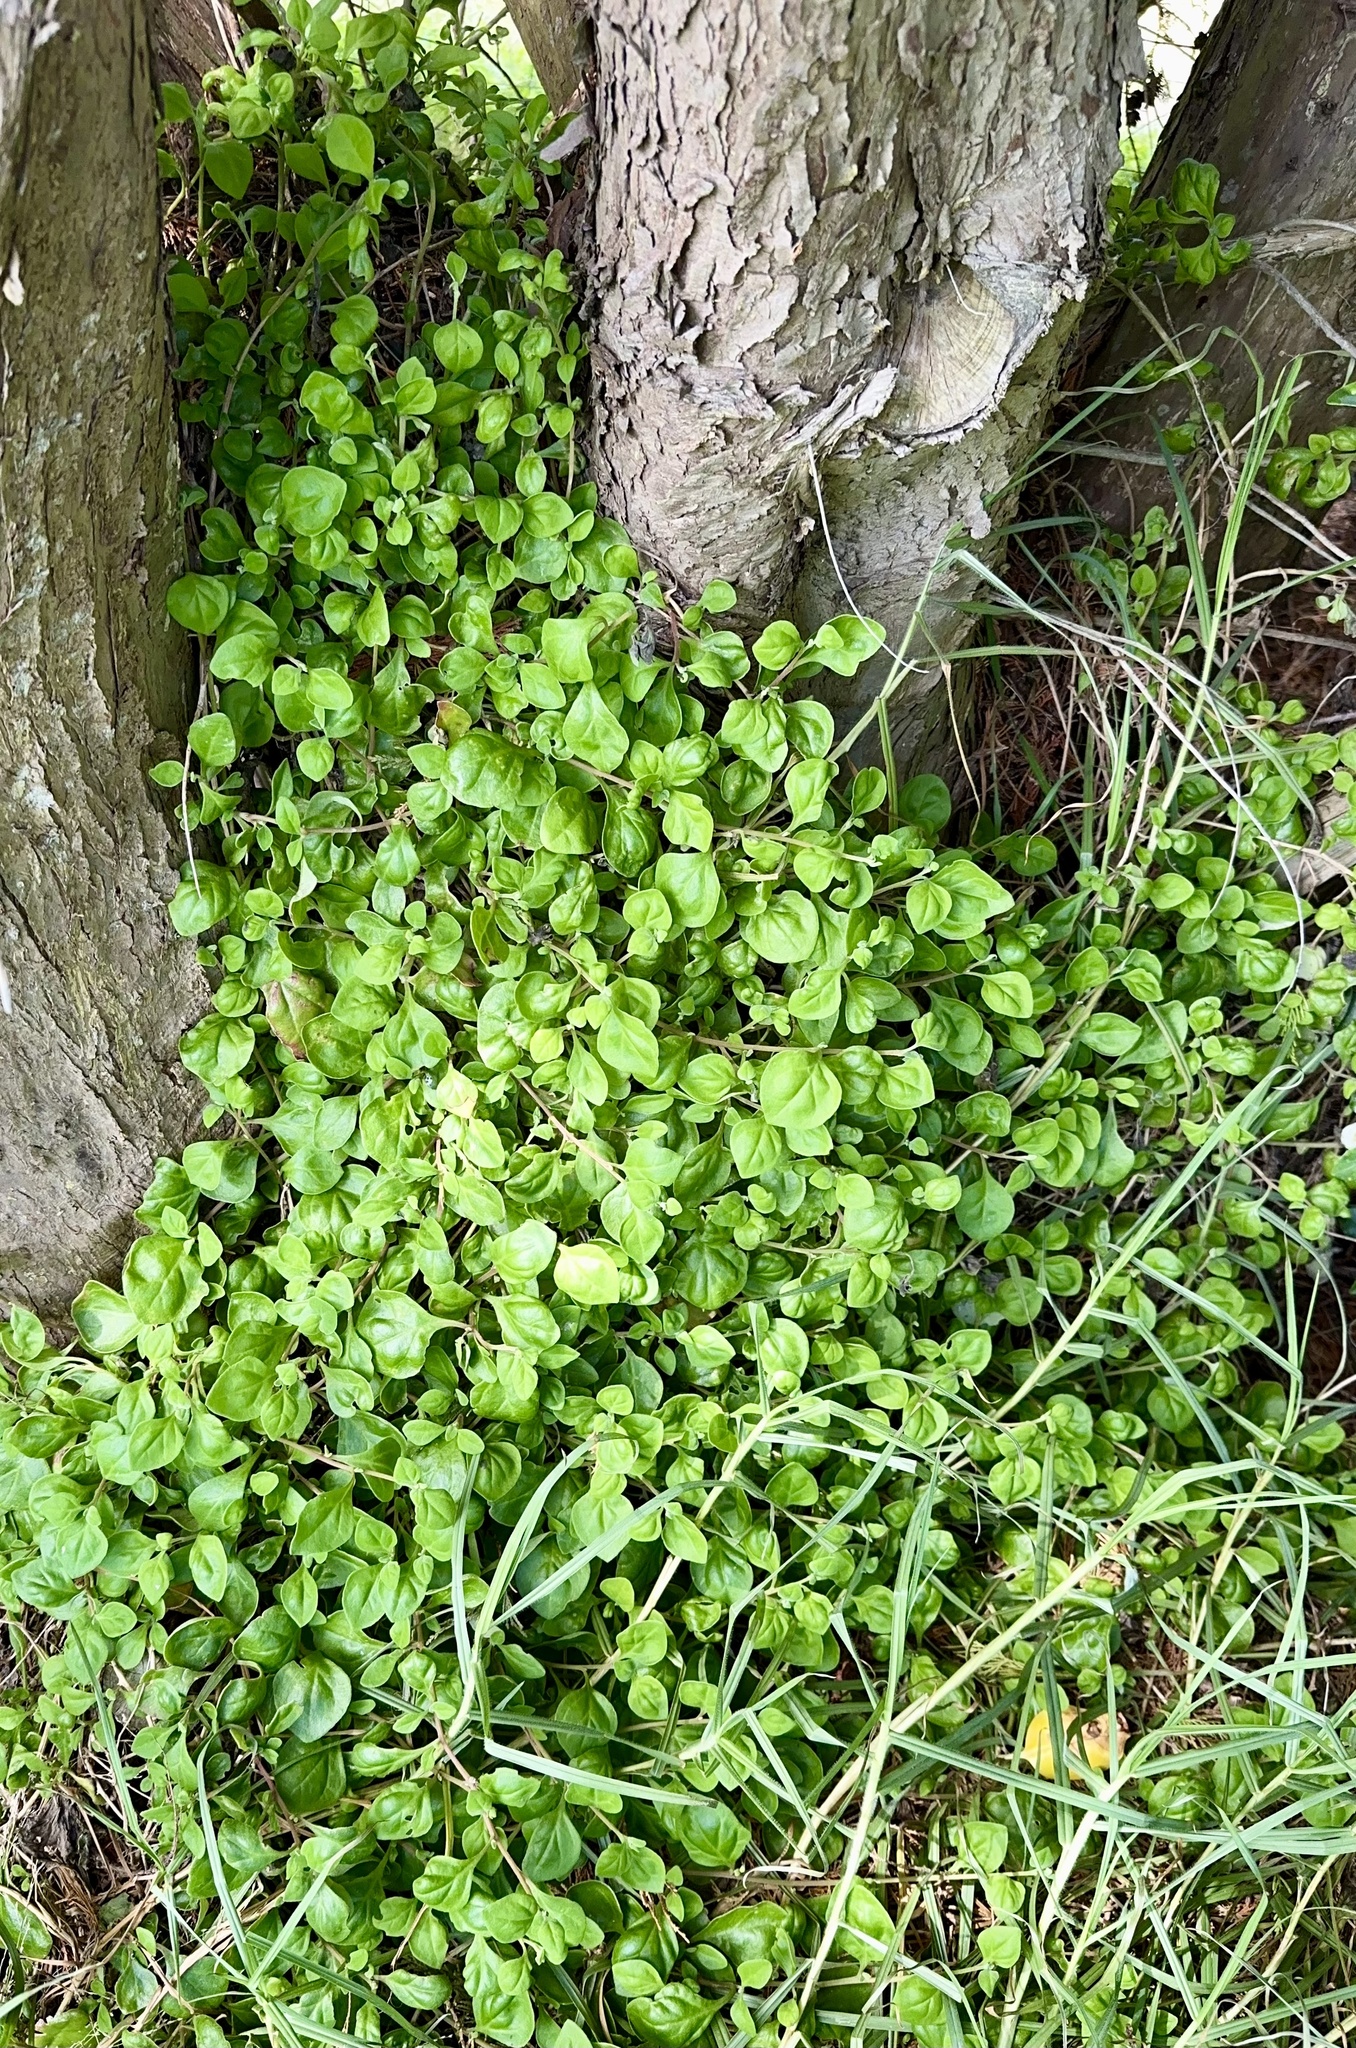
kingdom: Plantae
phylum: Tracheophyta
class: Magnoliopsida
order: Caryophyllales
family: Aizoaceae
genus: Tetragonia
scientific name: Tetragonia implexicoma
